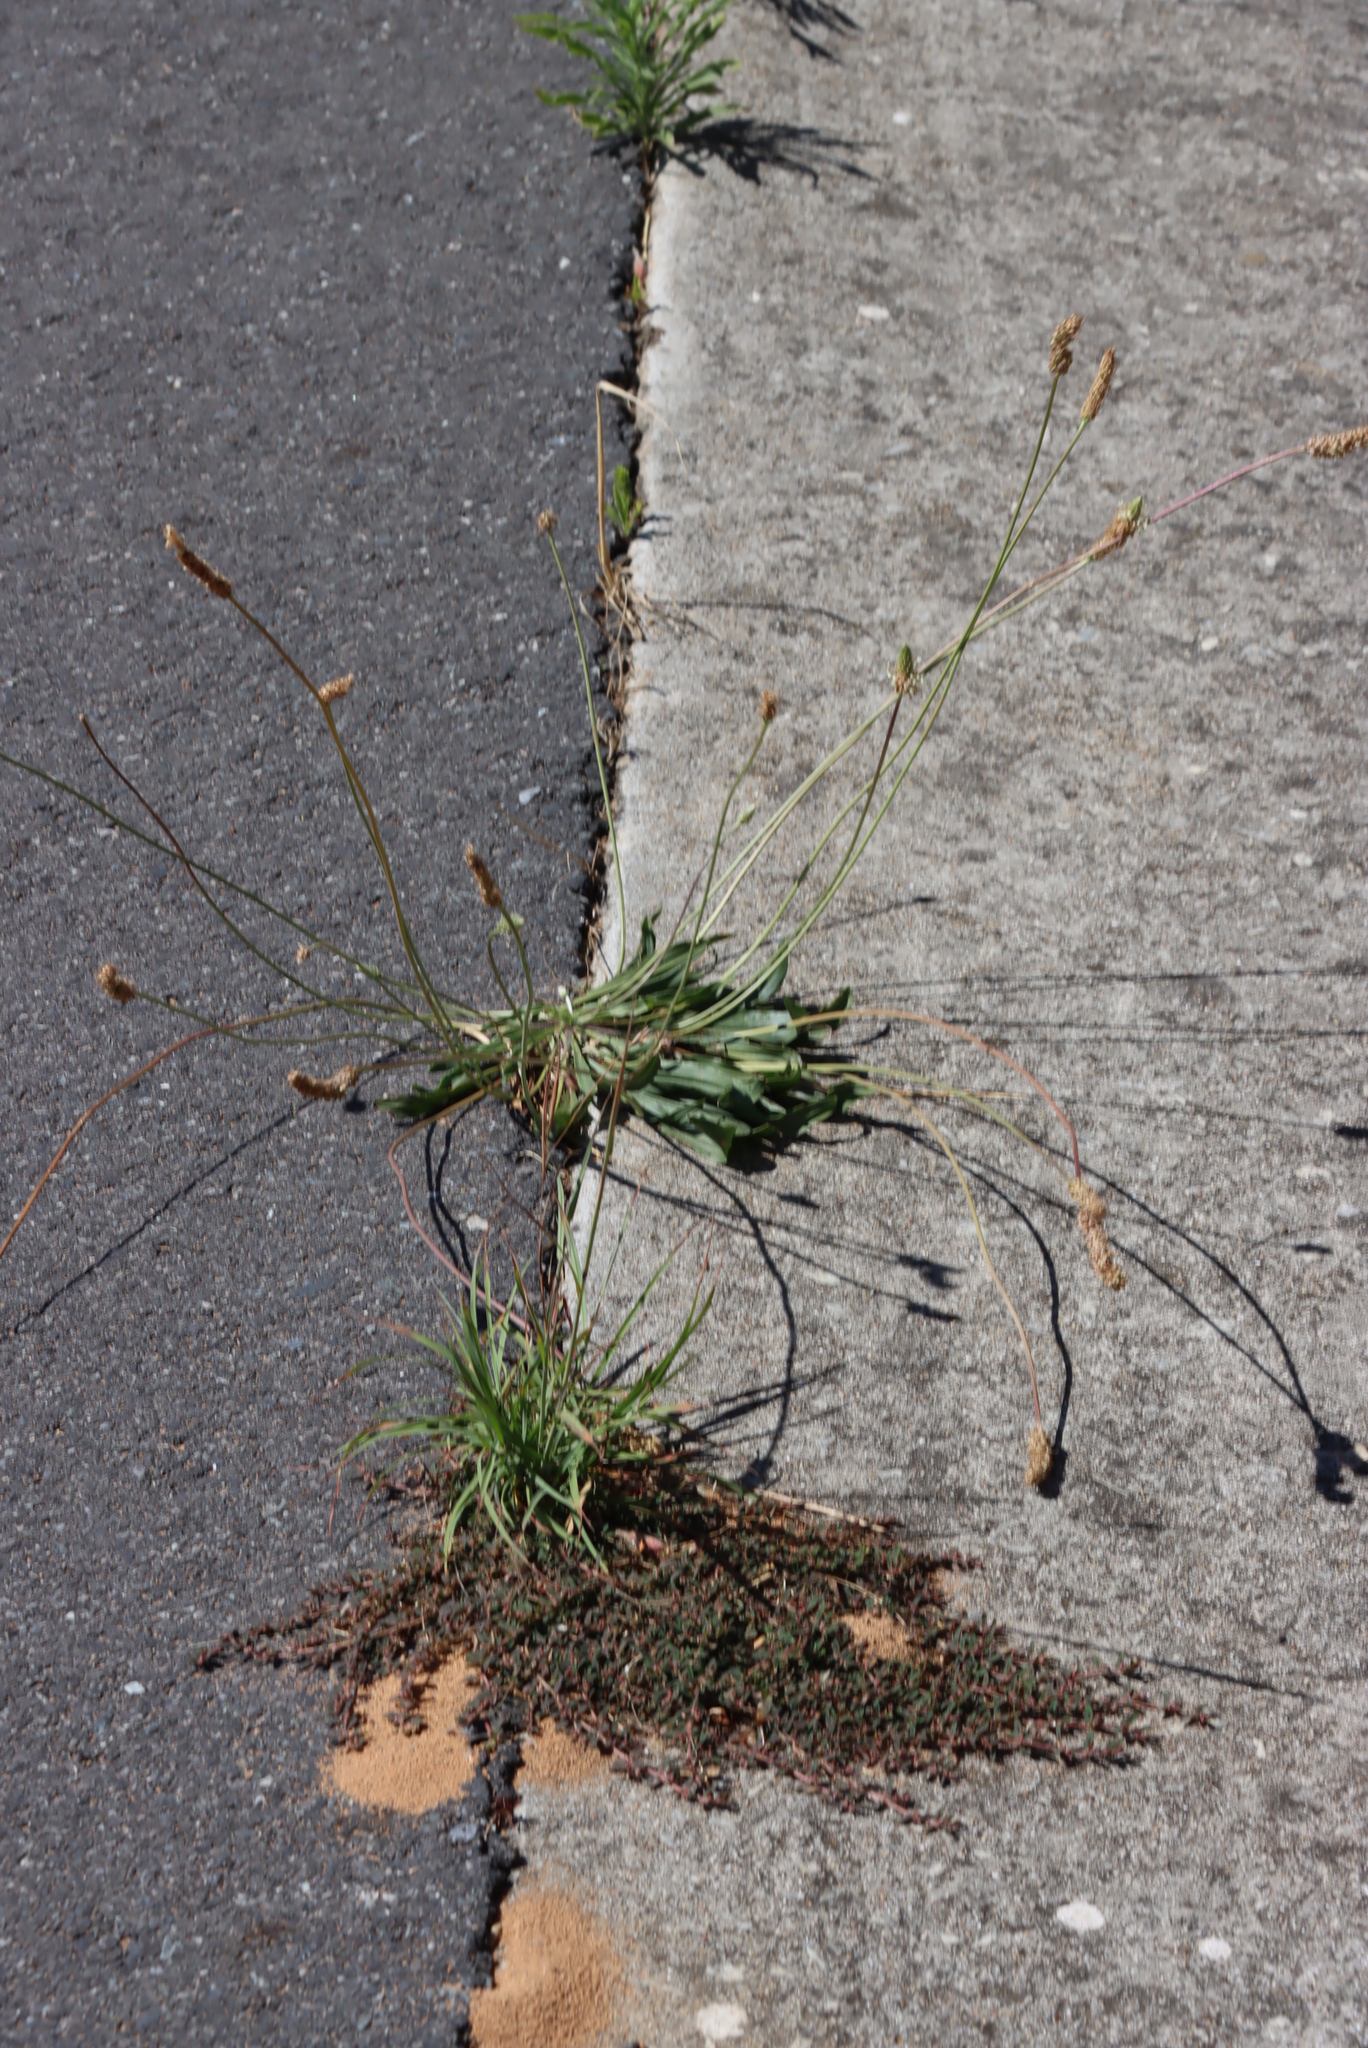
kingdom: Plantae
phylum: Tracheophyta
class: Magnoliopsida
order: Lamiales
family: Plantaginaceae
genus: Plantago
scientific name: Plantago lanceolata
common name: Ribwort plantain
